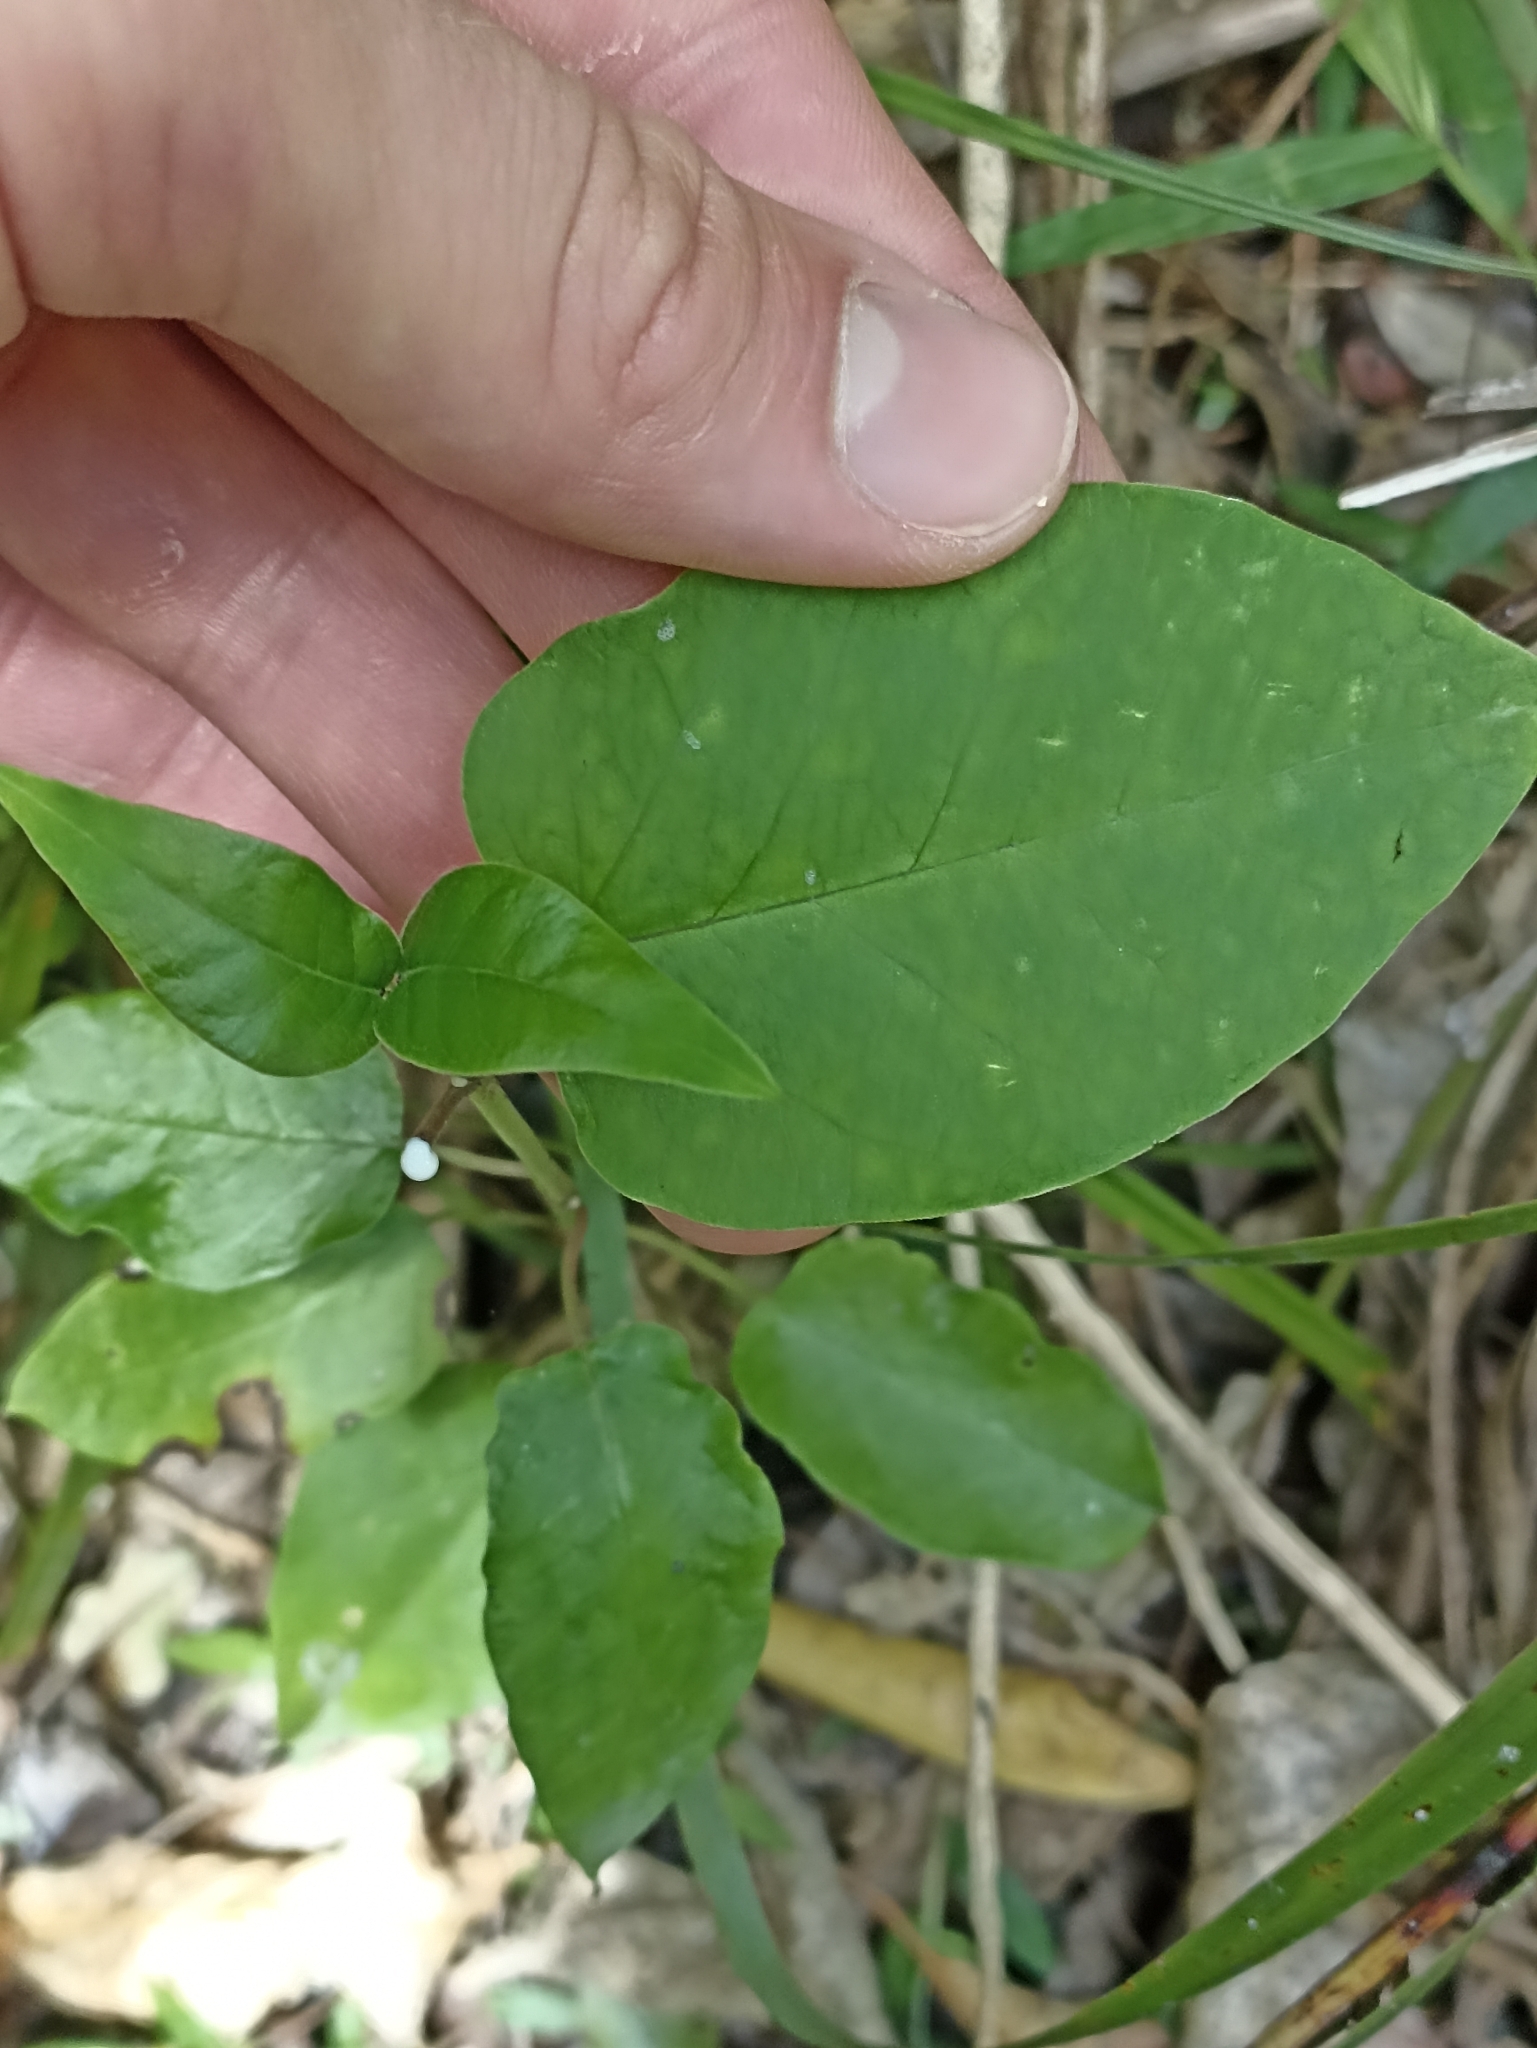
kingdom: Plantae
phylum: Tracheophyta
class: Magnoliopsida
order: Gentianales
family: Apocynaceae
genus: Araujia
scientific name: Araujia sericifera
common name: White bladderflower
